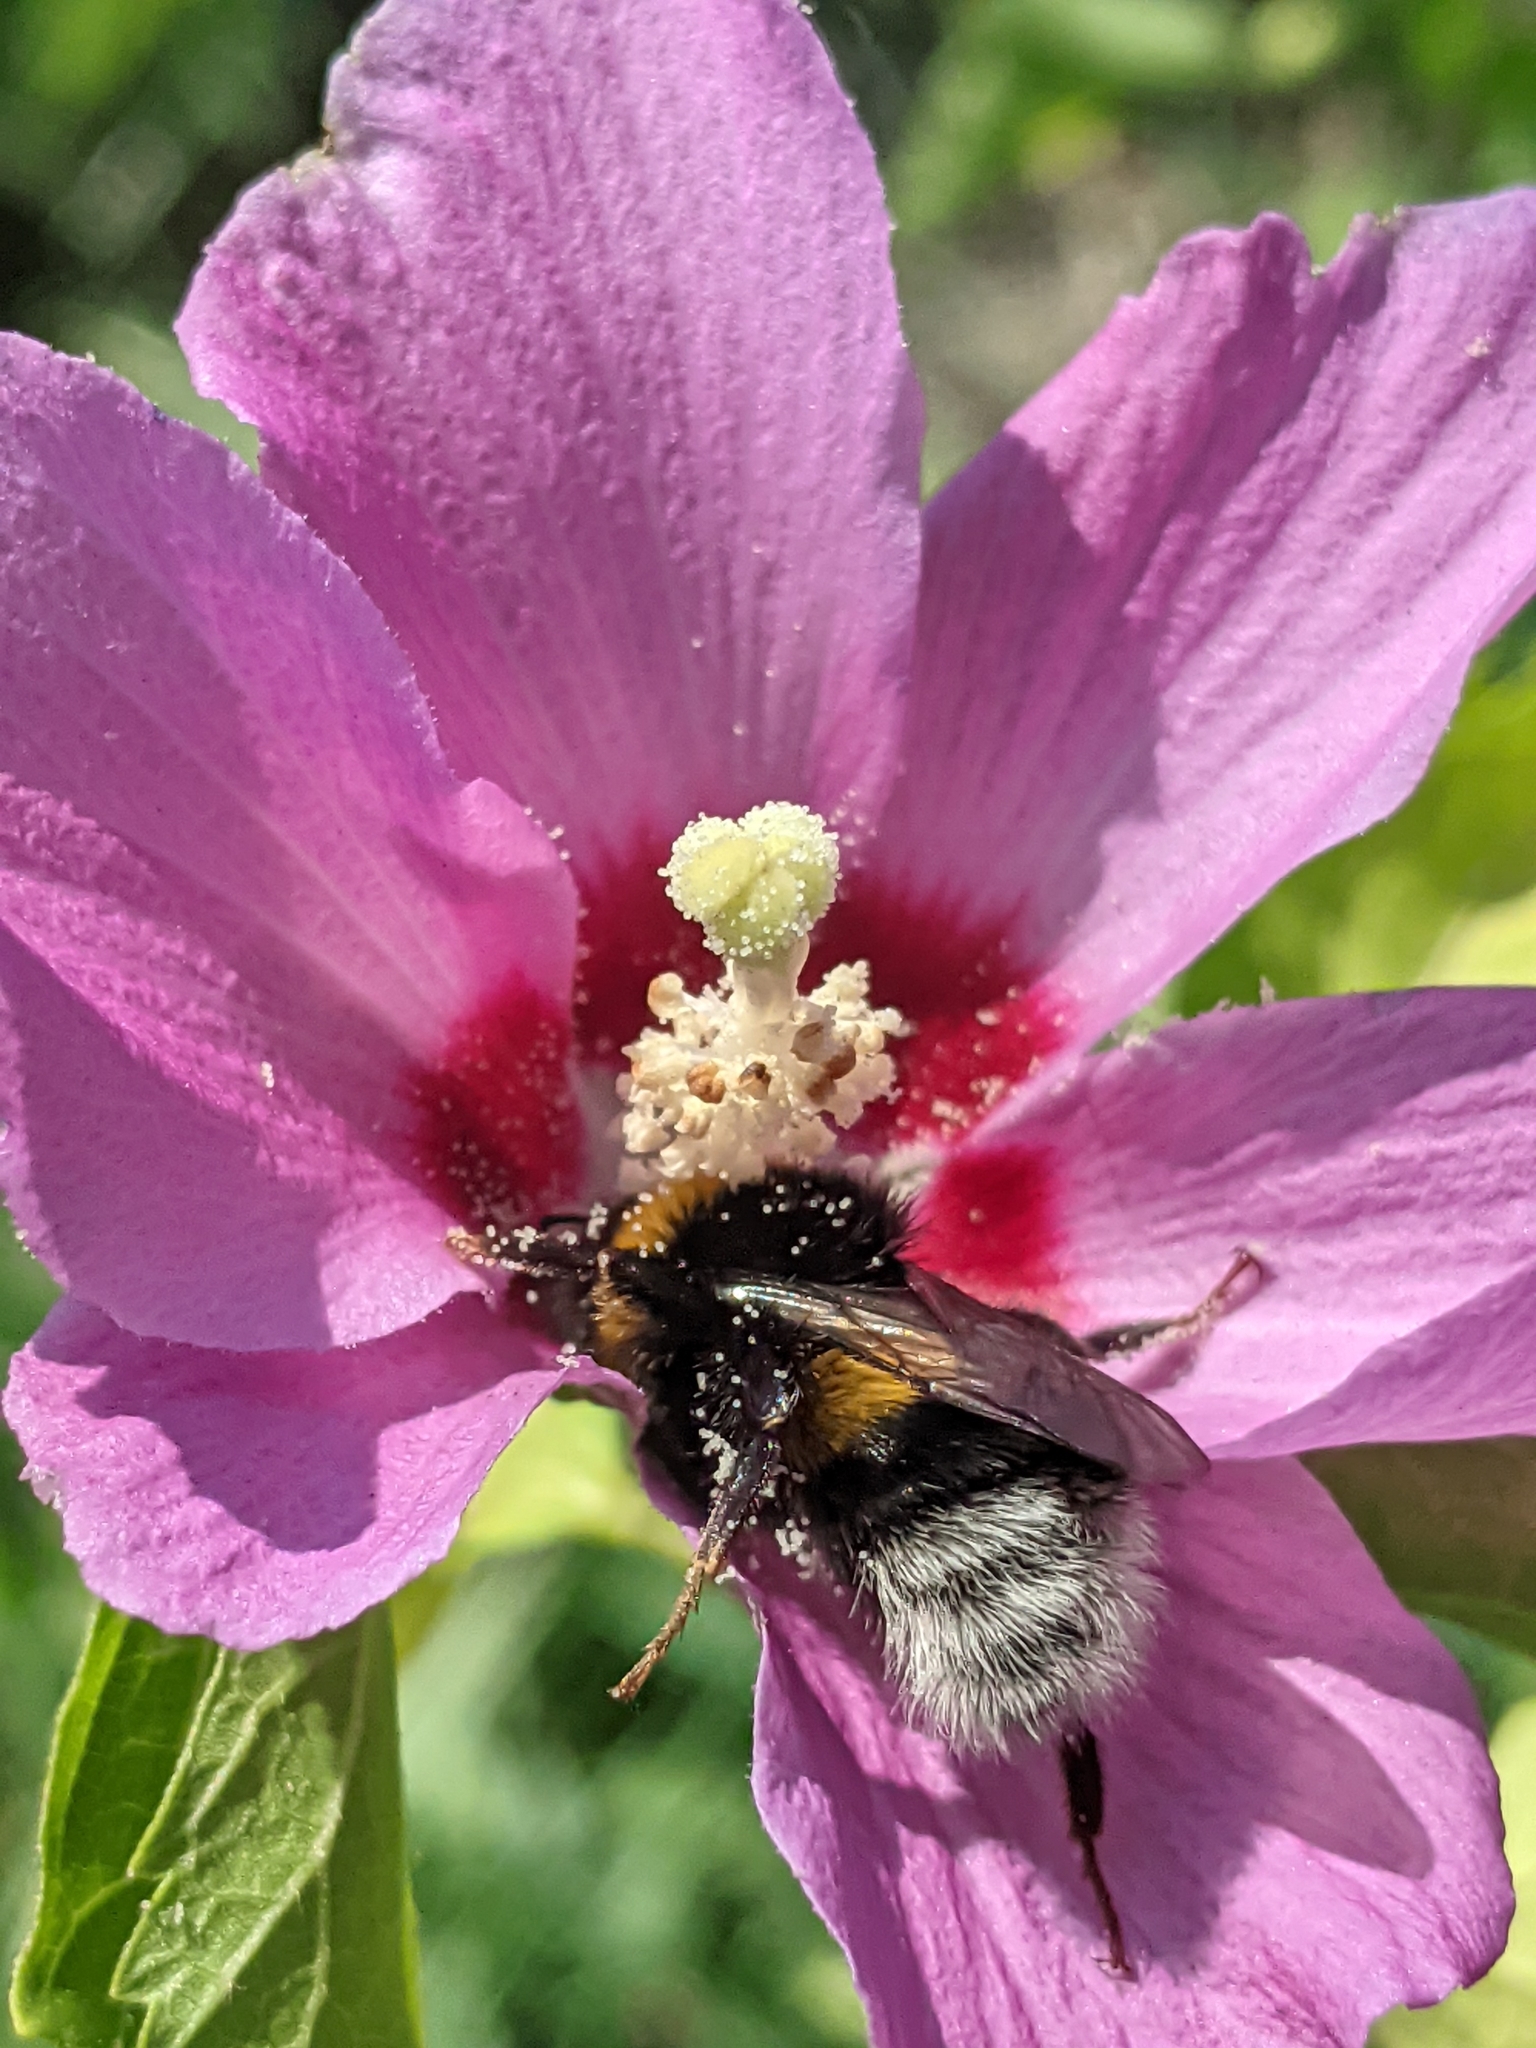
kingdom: Animalia
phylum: Arthropoda
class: Insecta
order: Hymenoptera
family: Apidae
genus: Bombus
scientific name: Bombus
